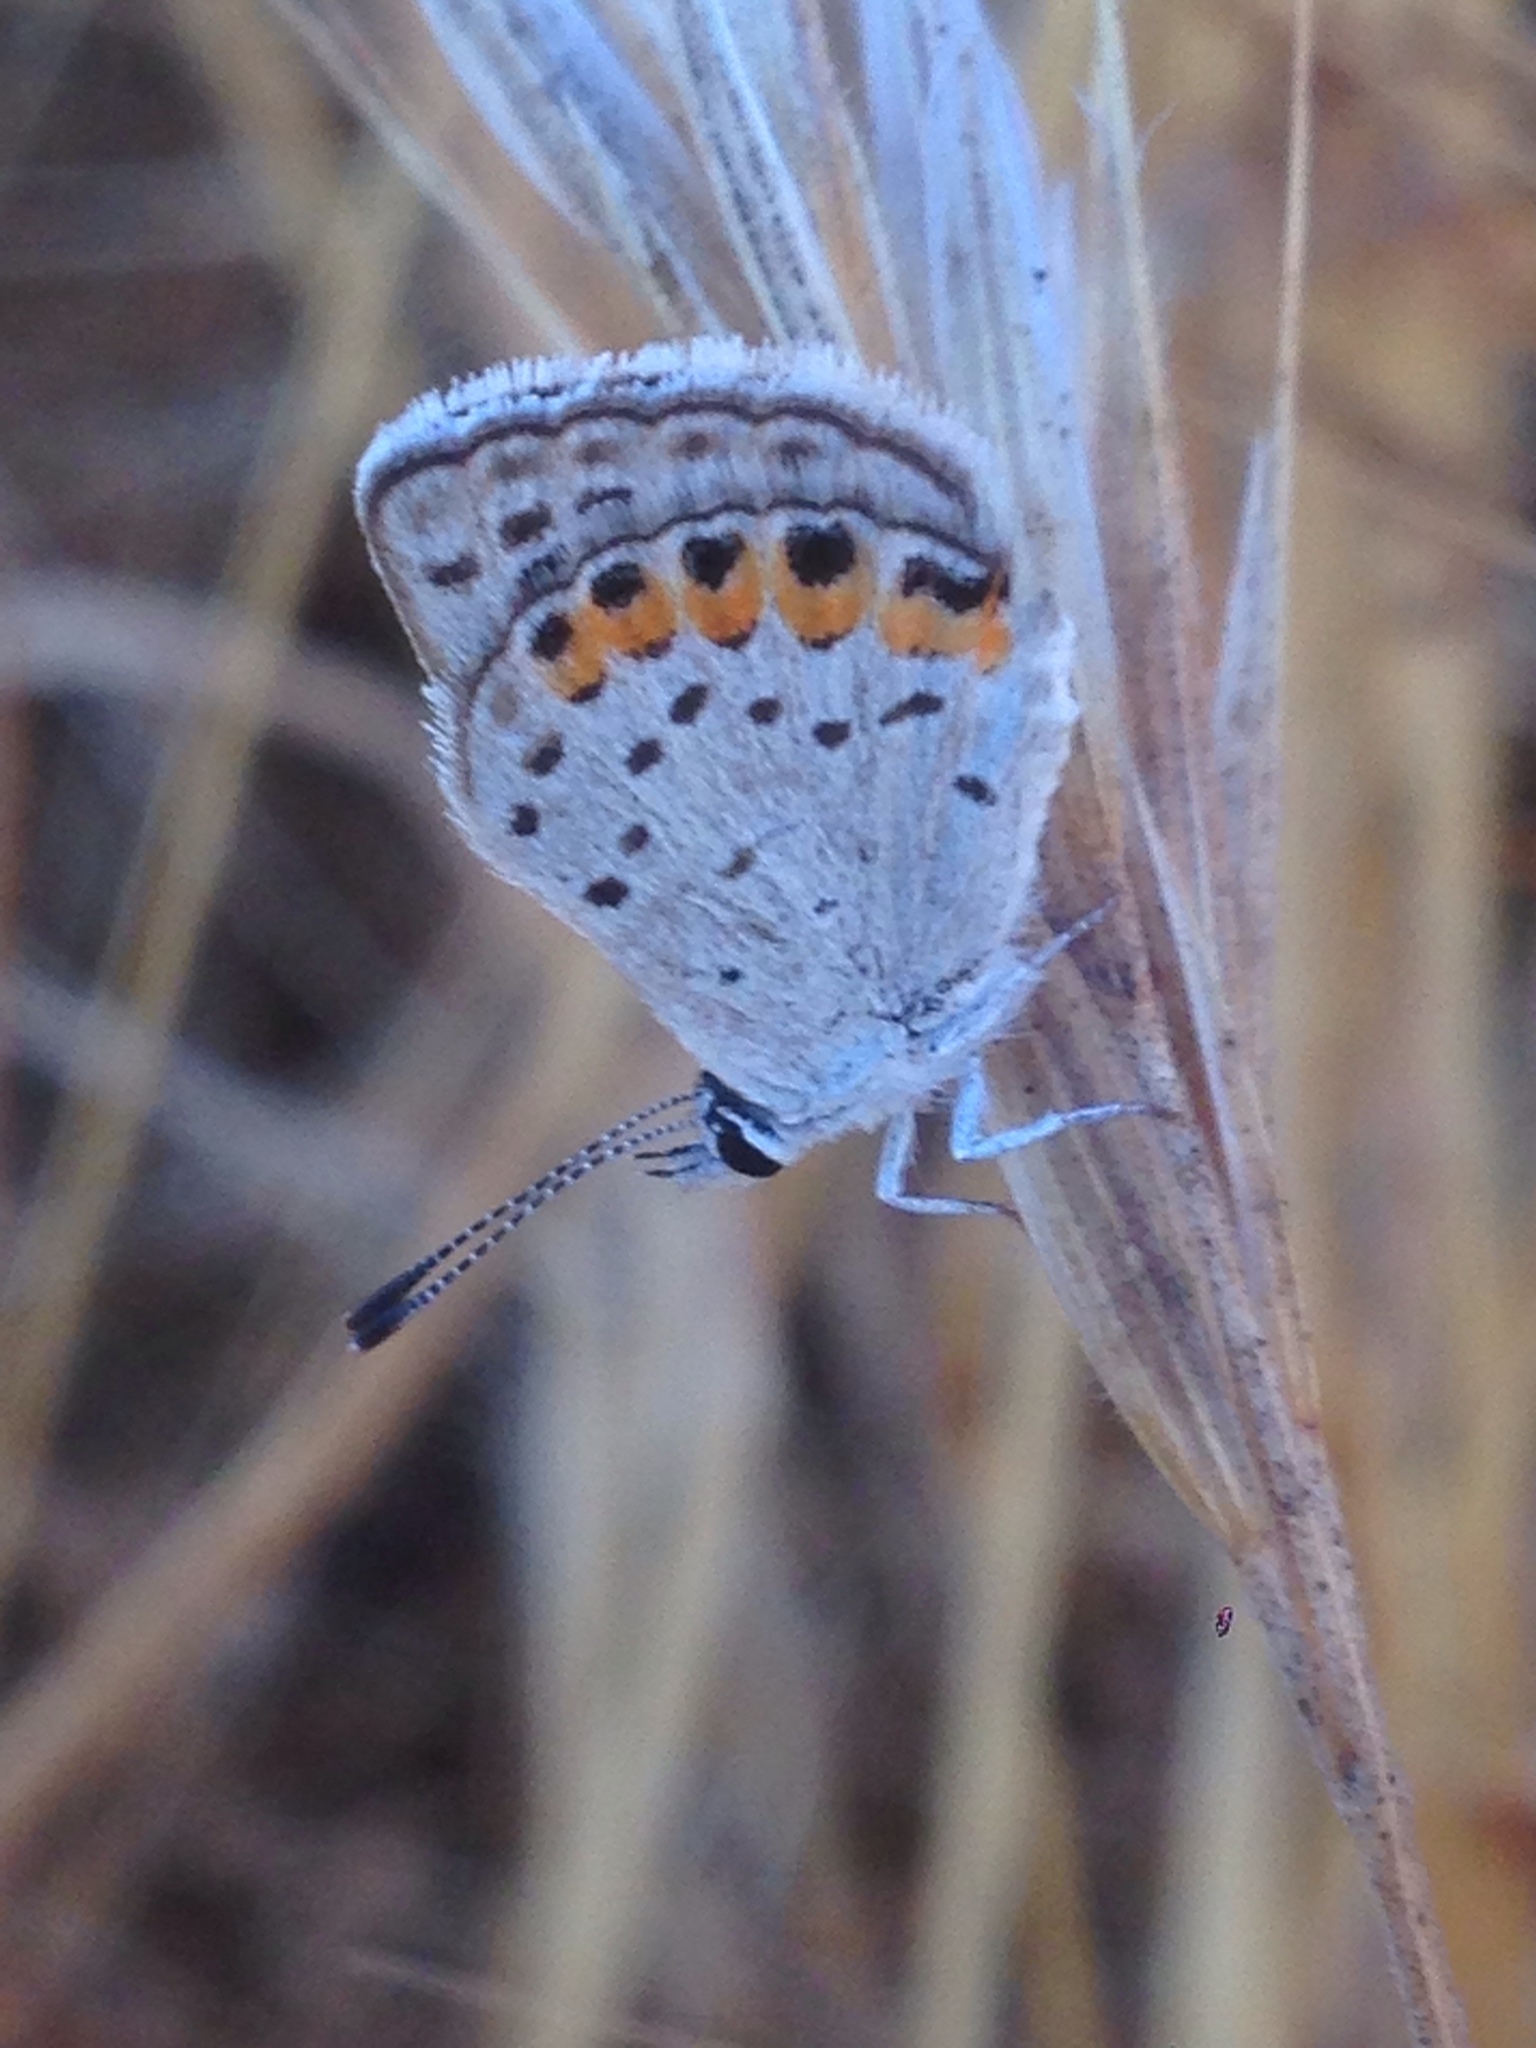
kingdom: Animalia
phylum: Arthropoda
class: Insecta
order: Lepidoptera
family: Lycaenidae
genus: Icaricia
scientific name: Icaricia acmon
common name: Acmon blue
